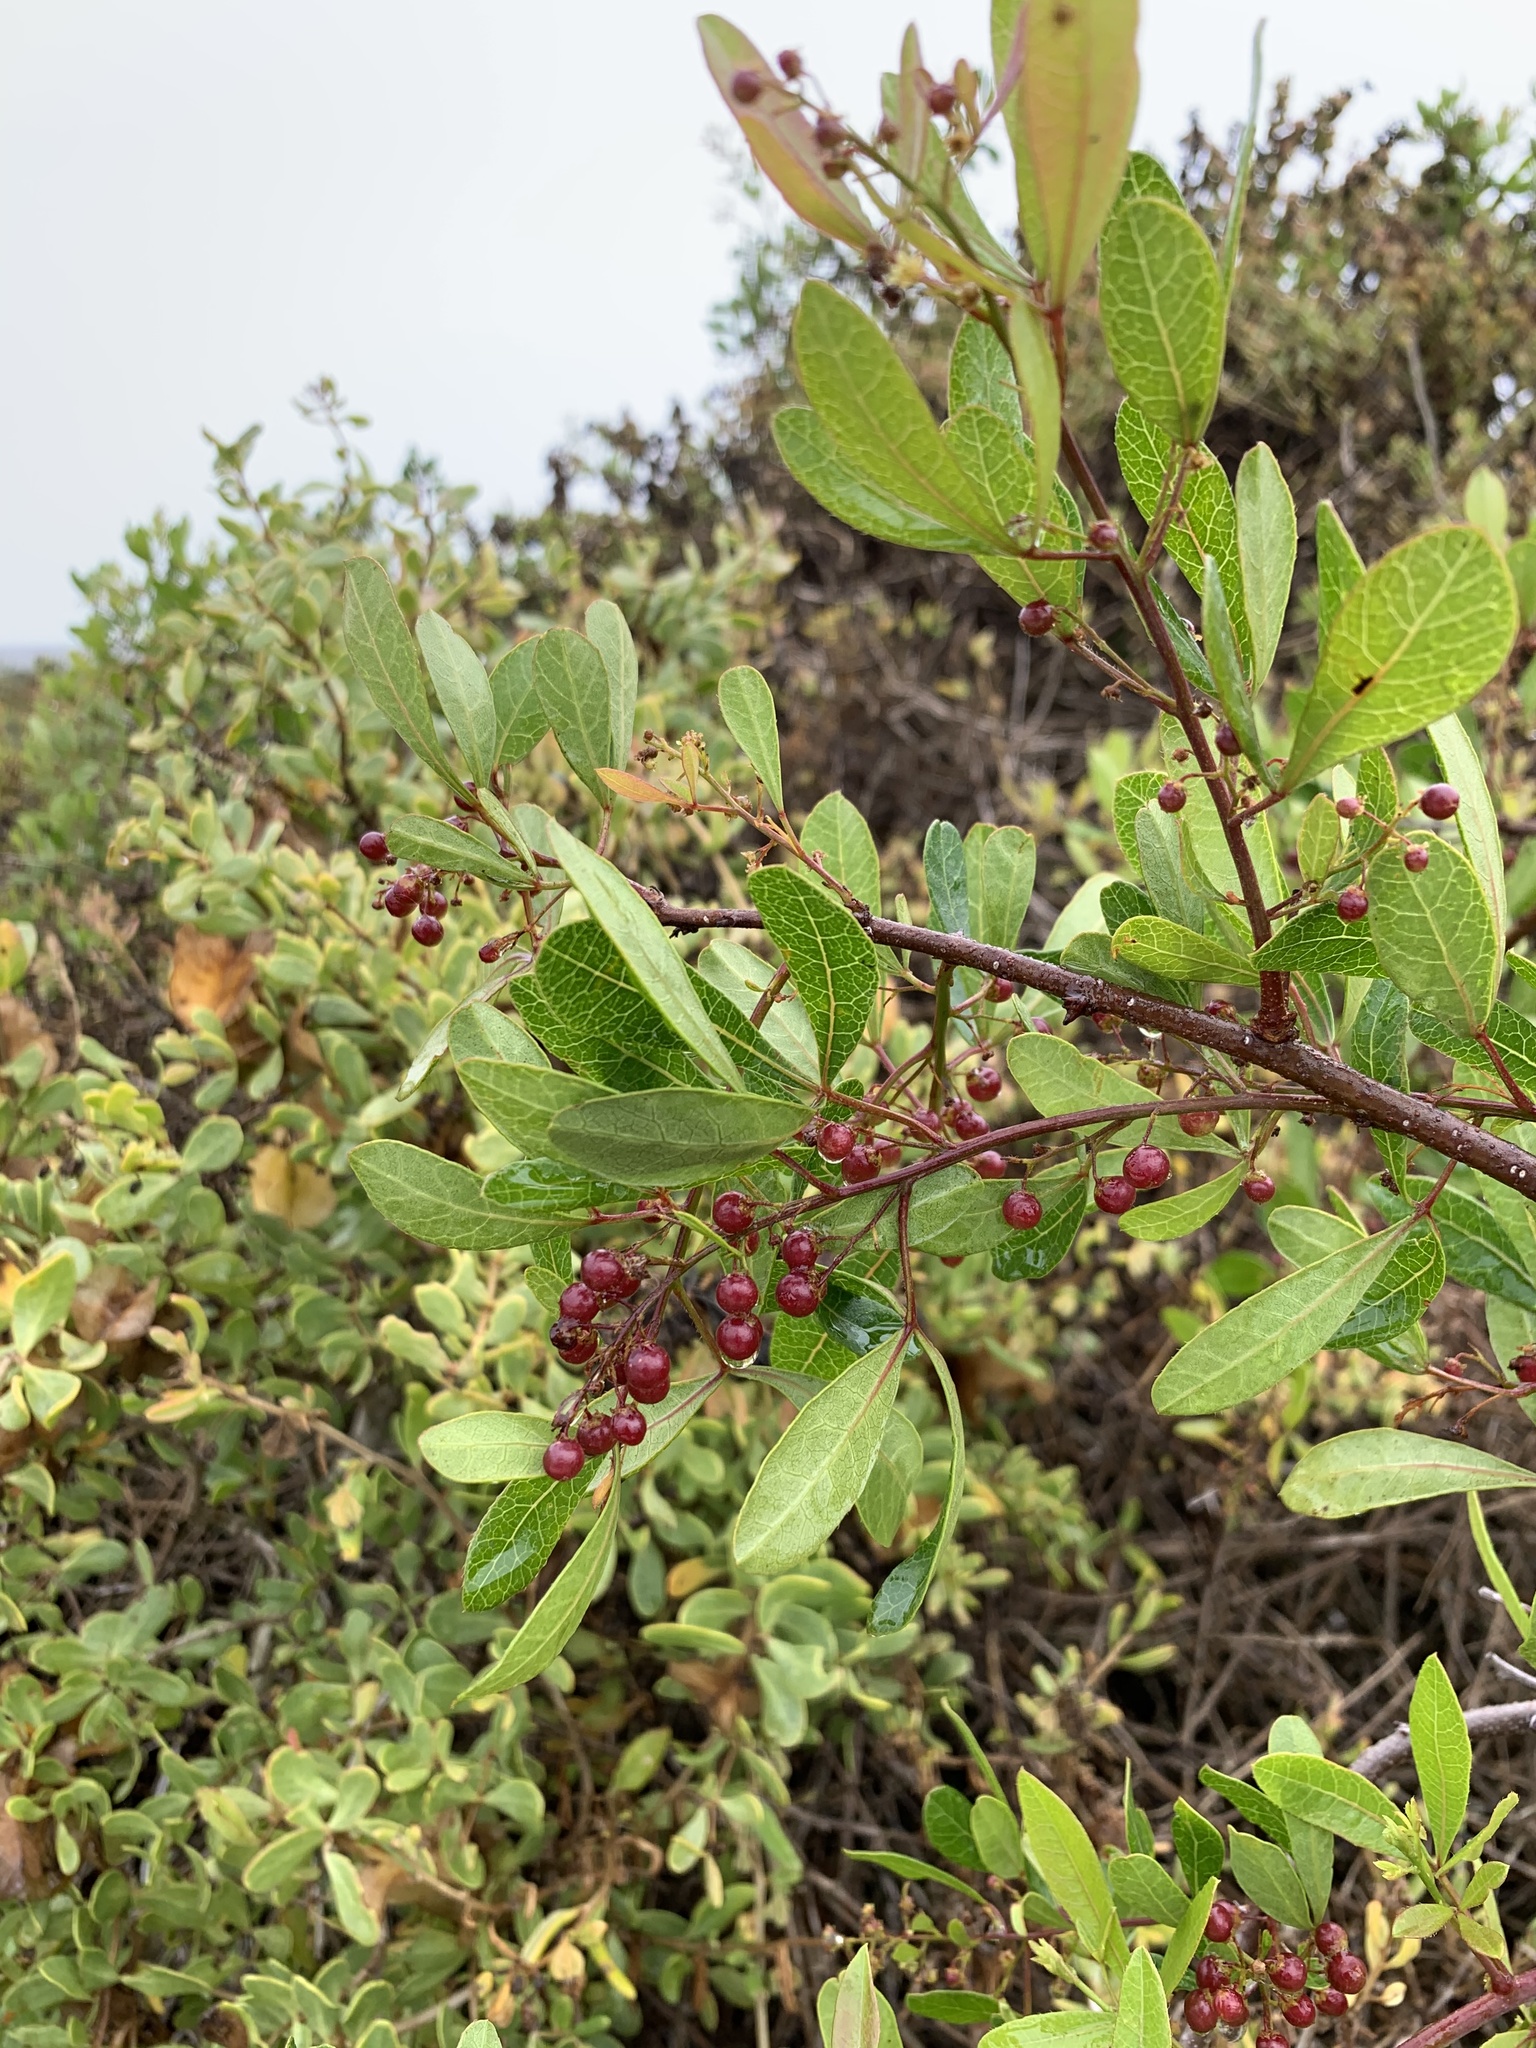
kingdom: Plantae
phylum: Tracheophyta
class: Magnoliopsida
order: Sapindales
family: Anacardiaceae
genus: Searsia
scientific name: Searsia laevigata
